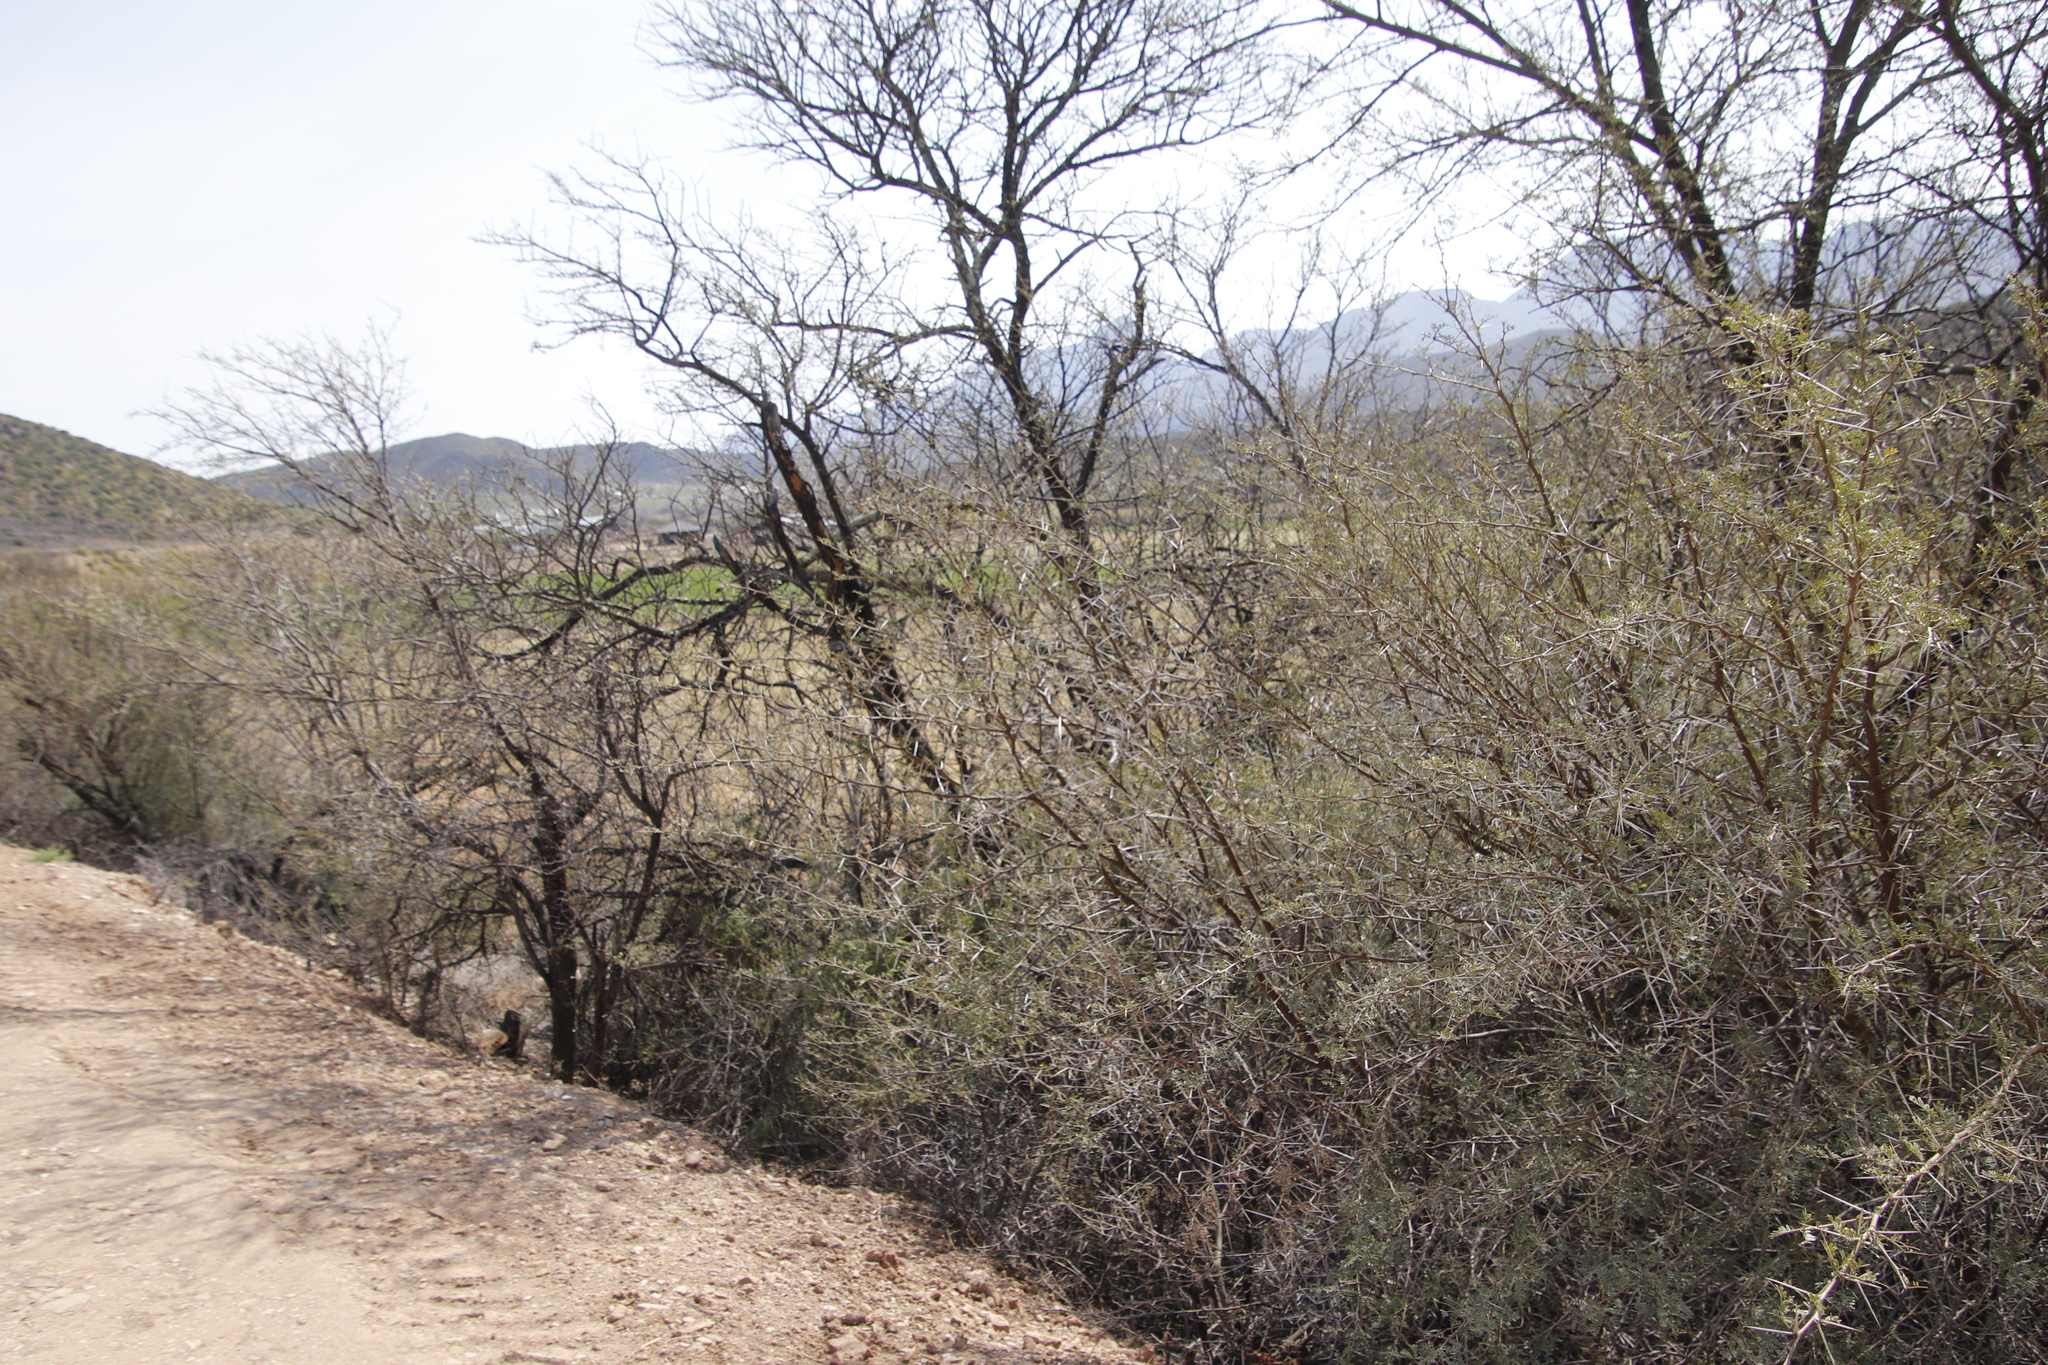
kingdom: Plantae
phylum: Tracheophyta
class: Magnoliopsida
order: Fabales
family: Fabaceae
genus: Vachellia
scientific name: Vachellia karroo
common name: Sweet thorn
